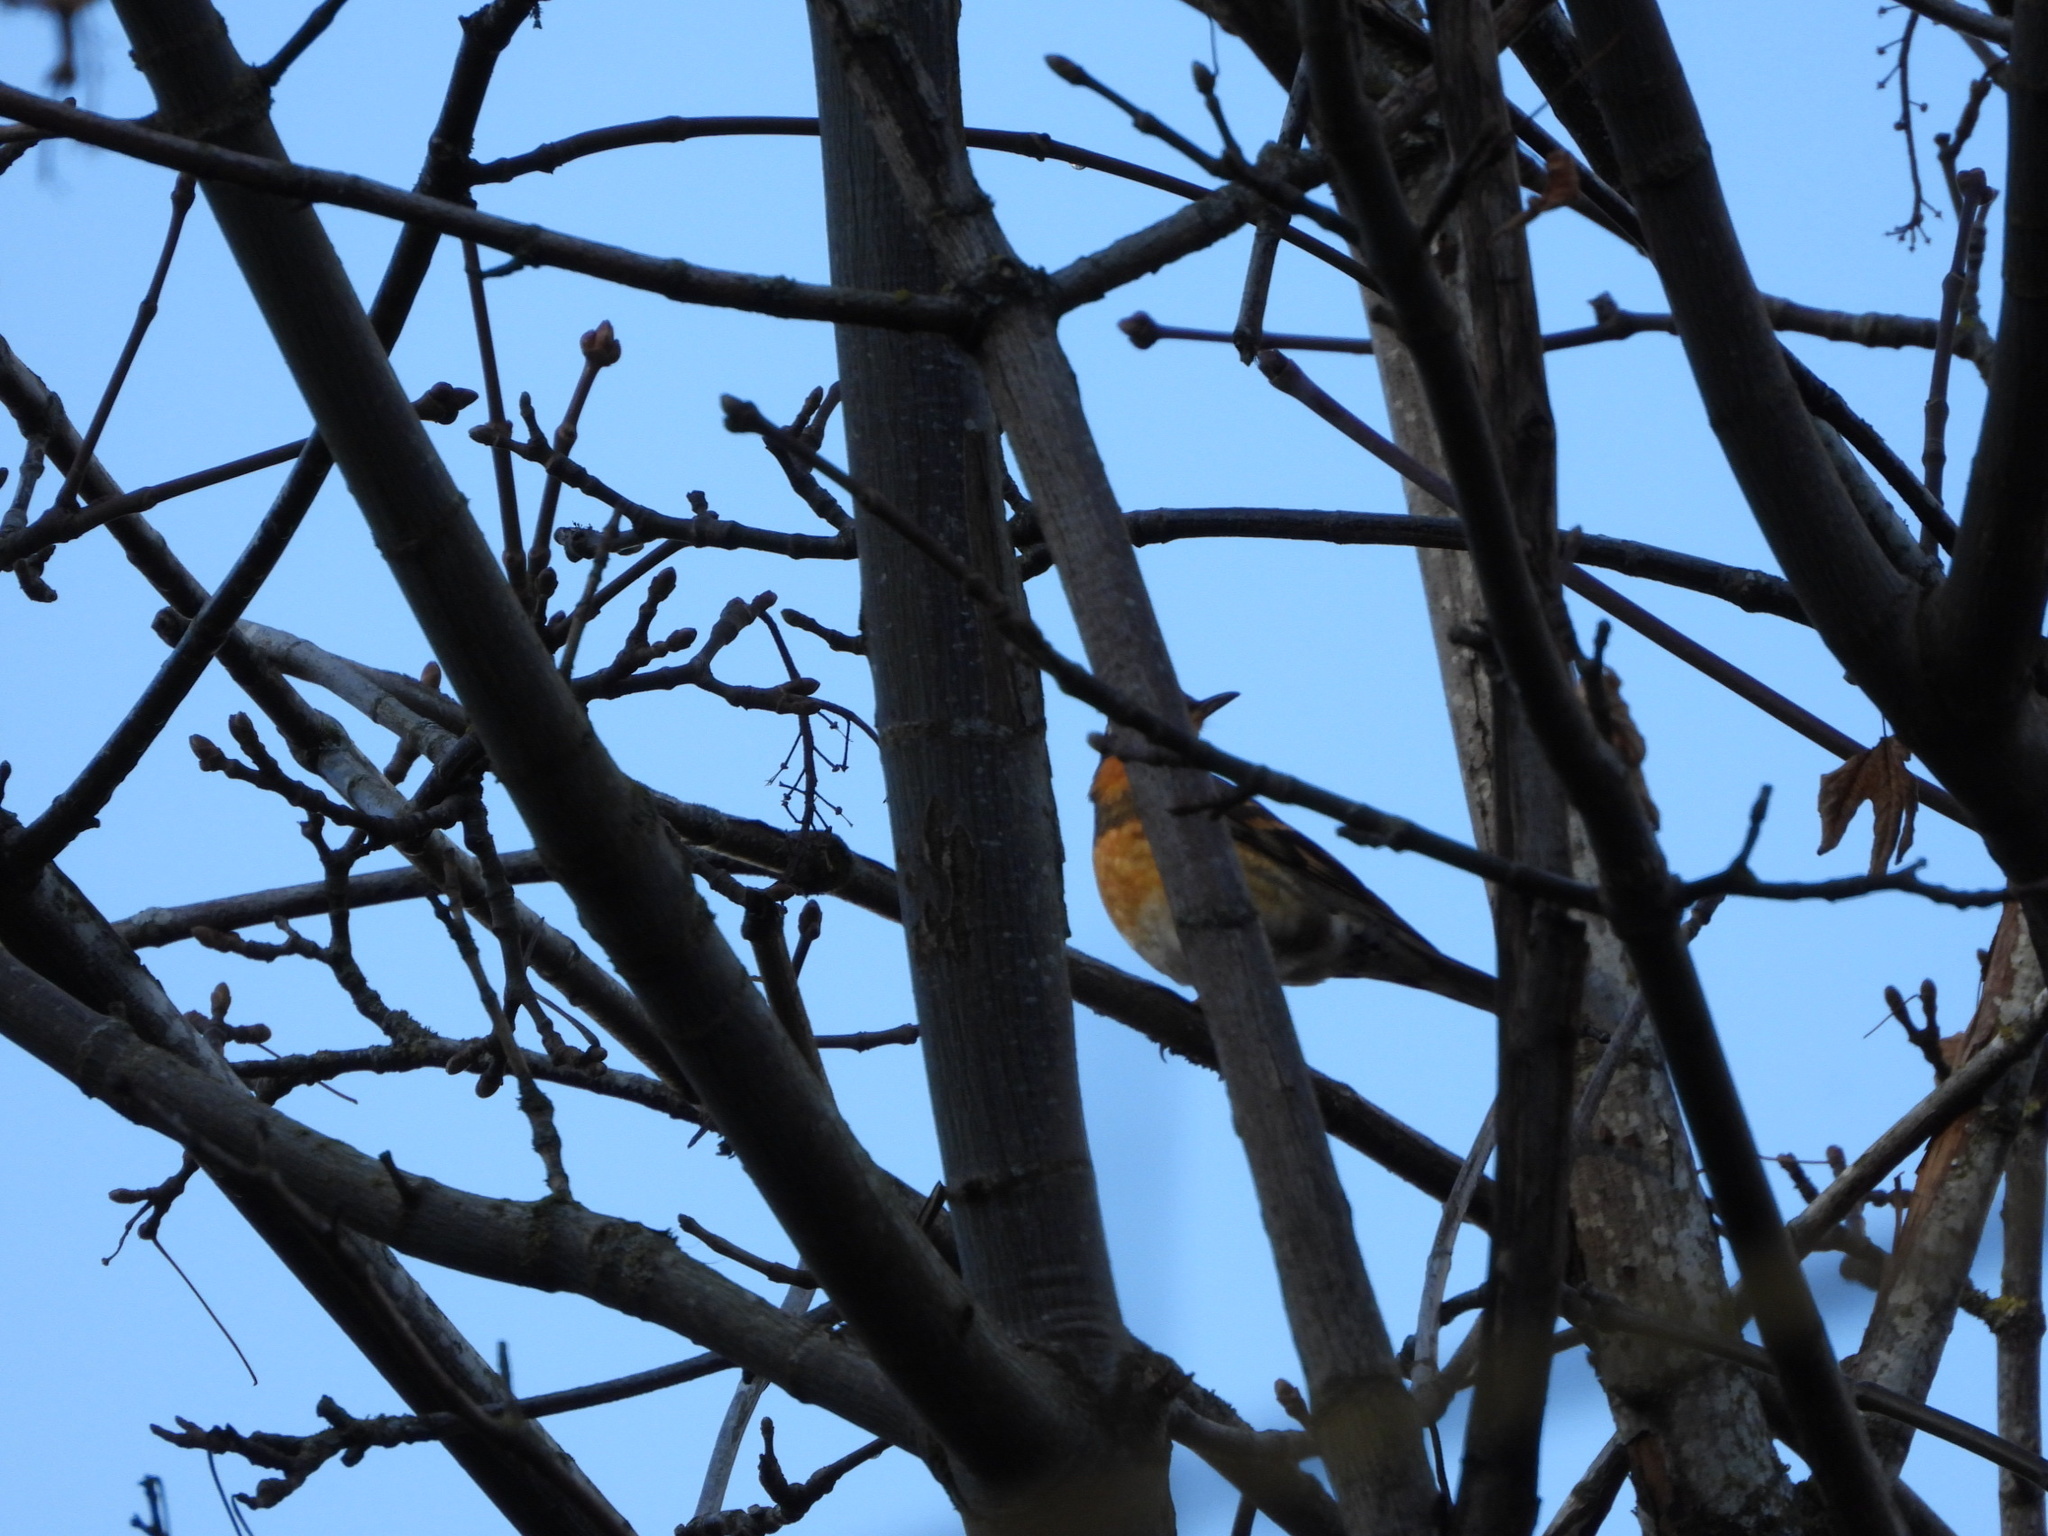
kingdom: Animalia
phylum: Chordata
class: Aves
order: Passeriformes
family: Turdidae
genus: Ixoreus
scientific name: Ixoreus naevius
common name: Varied thrush
